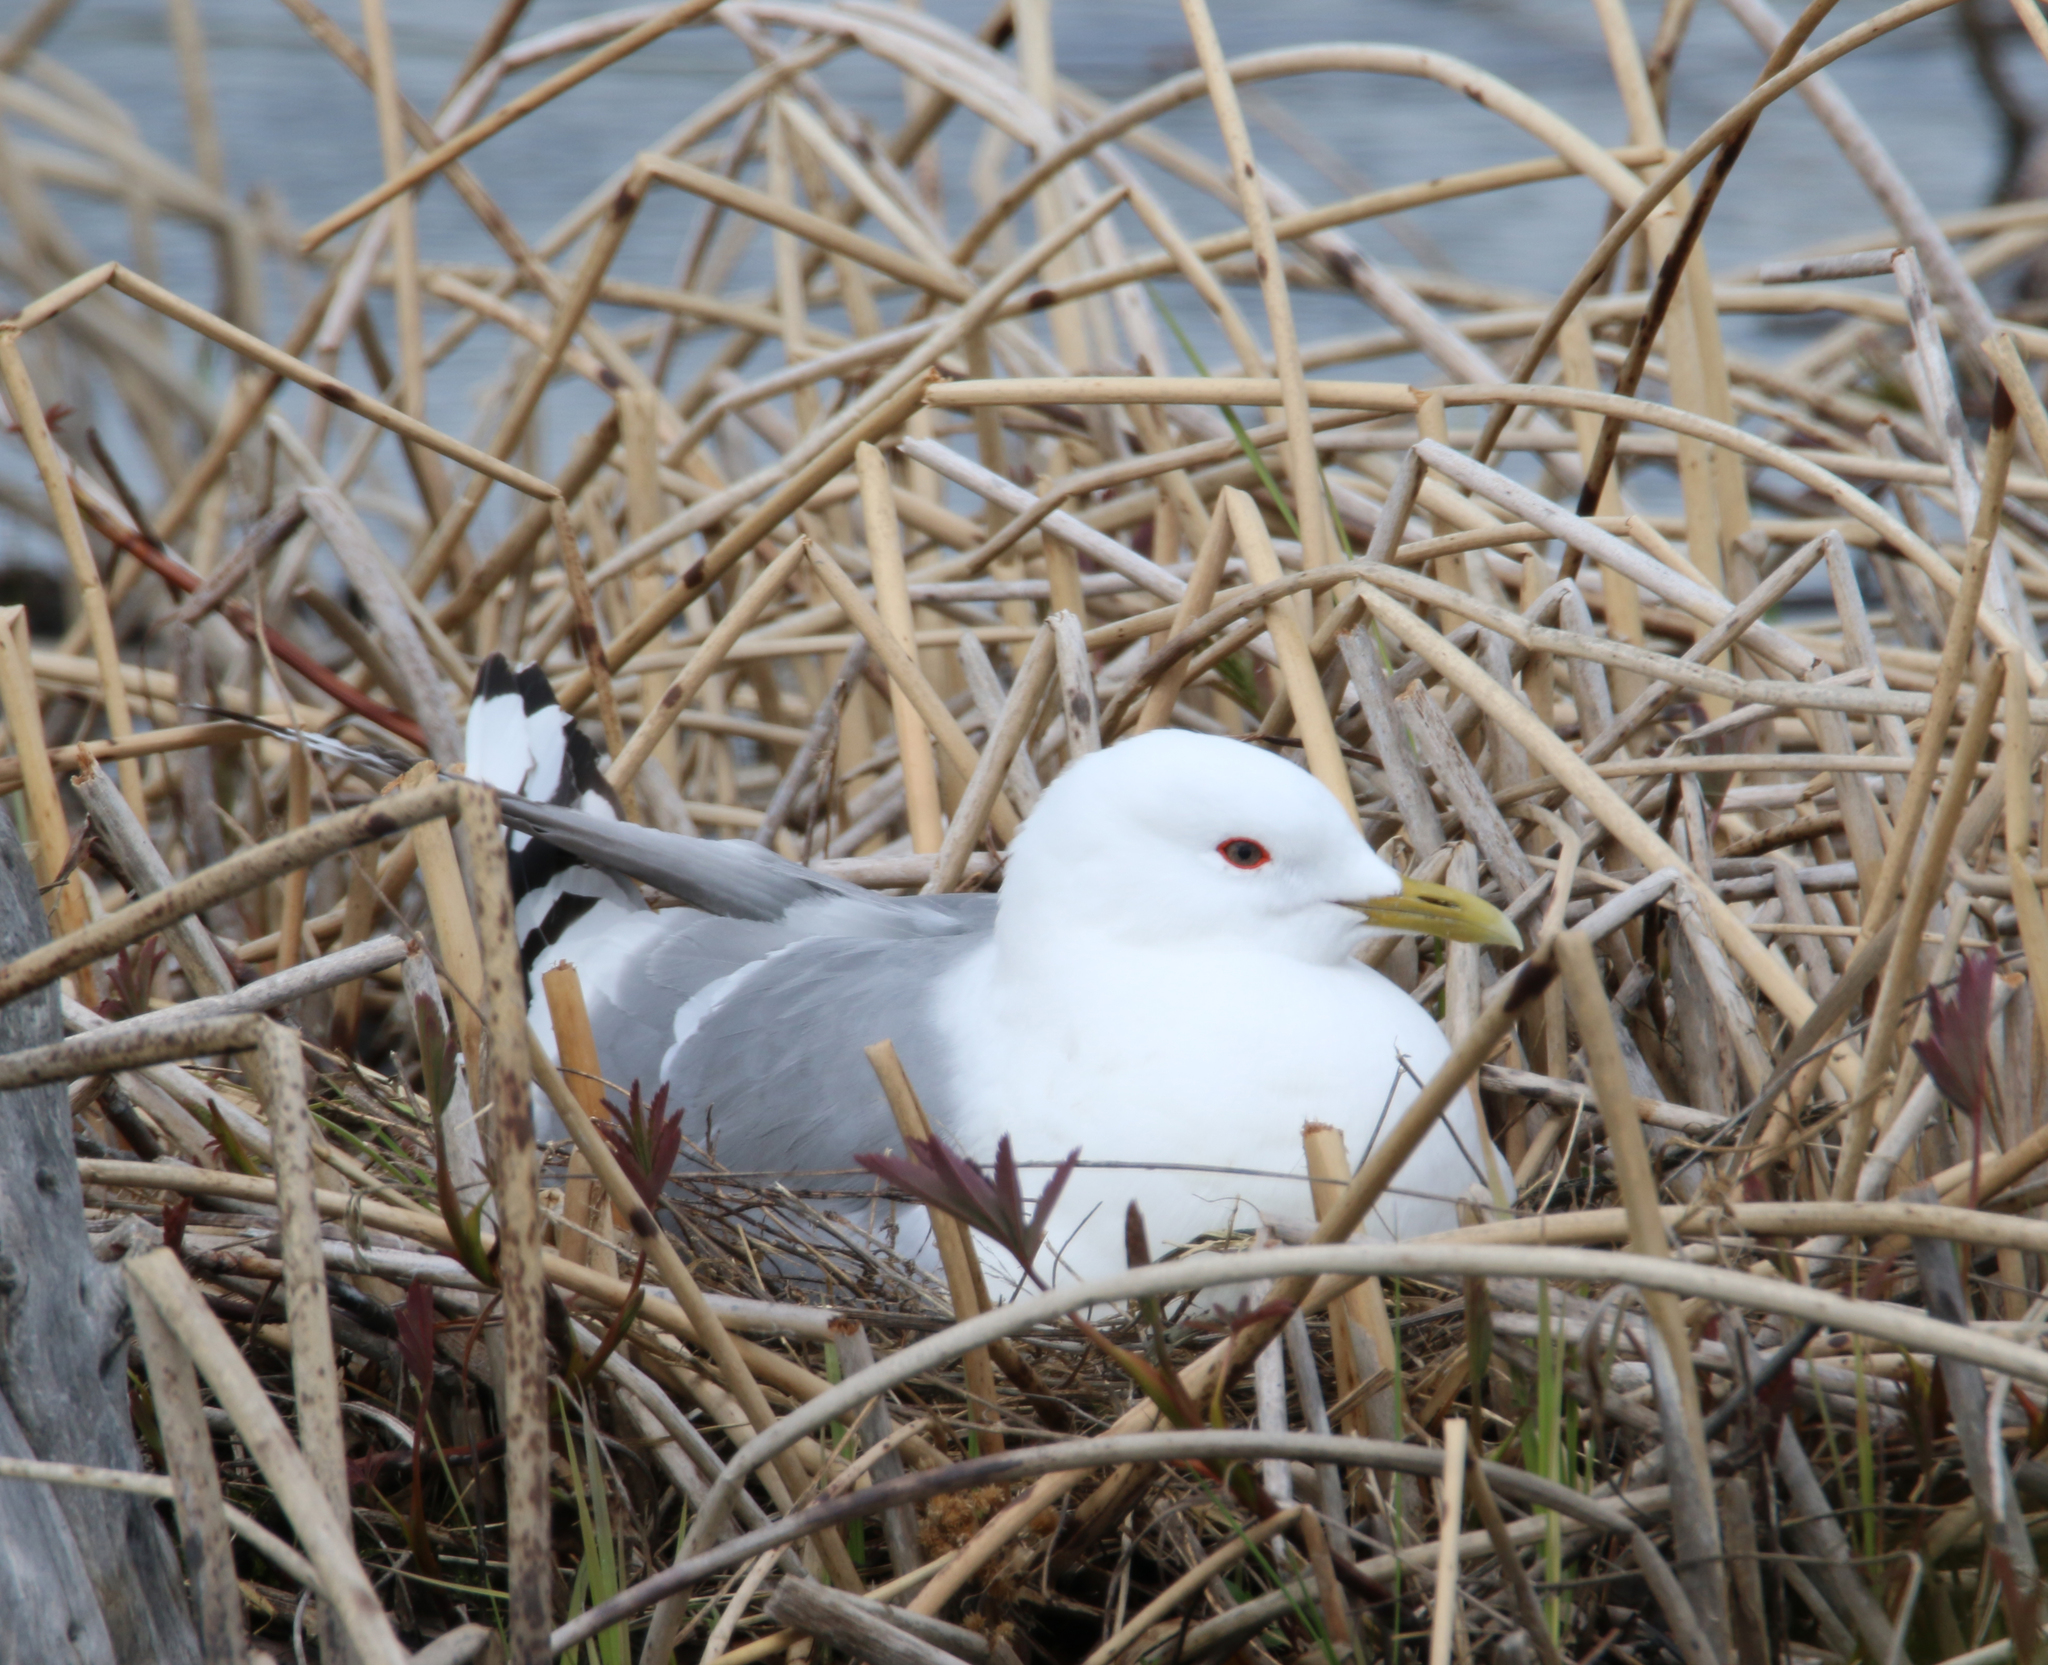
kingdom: Animalia
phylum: Chordata
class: Aves
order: Charadriiformes
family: Laridae
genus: Larus
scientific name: Larus brachyrhynchus
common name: Short-billed gull
